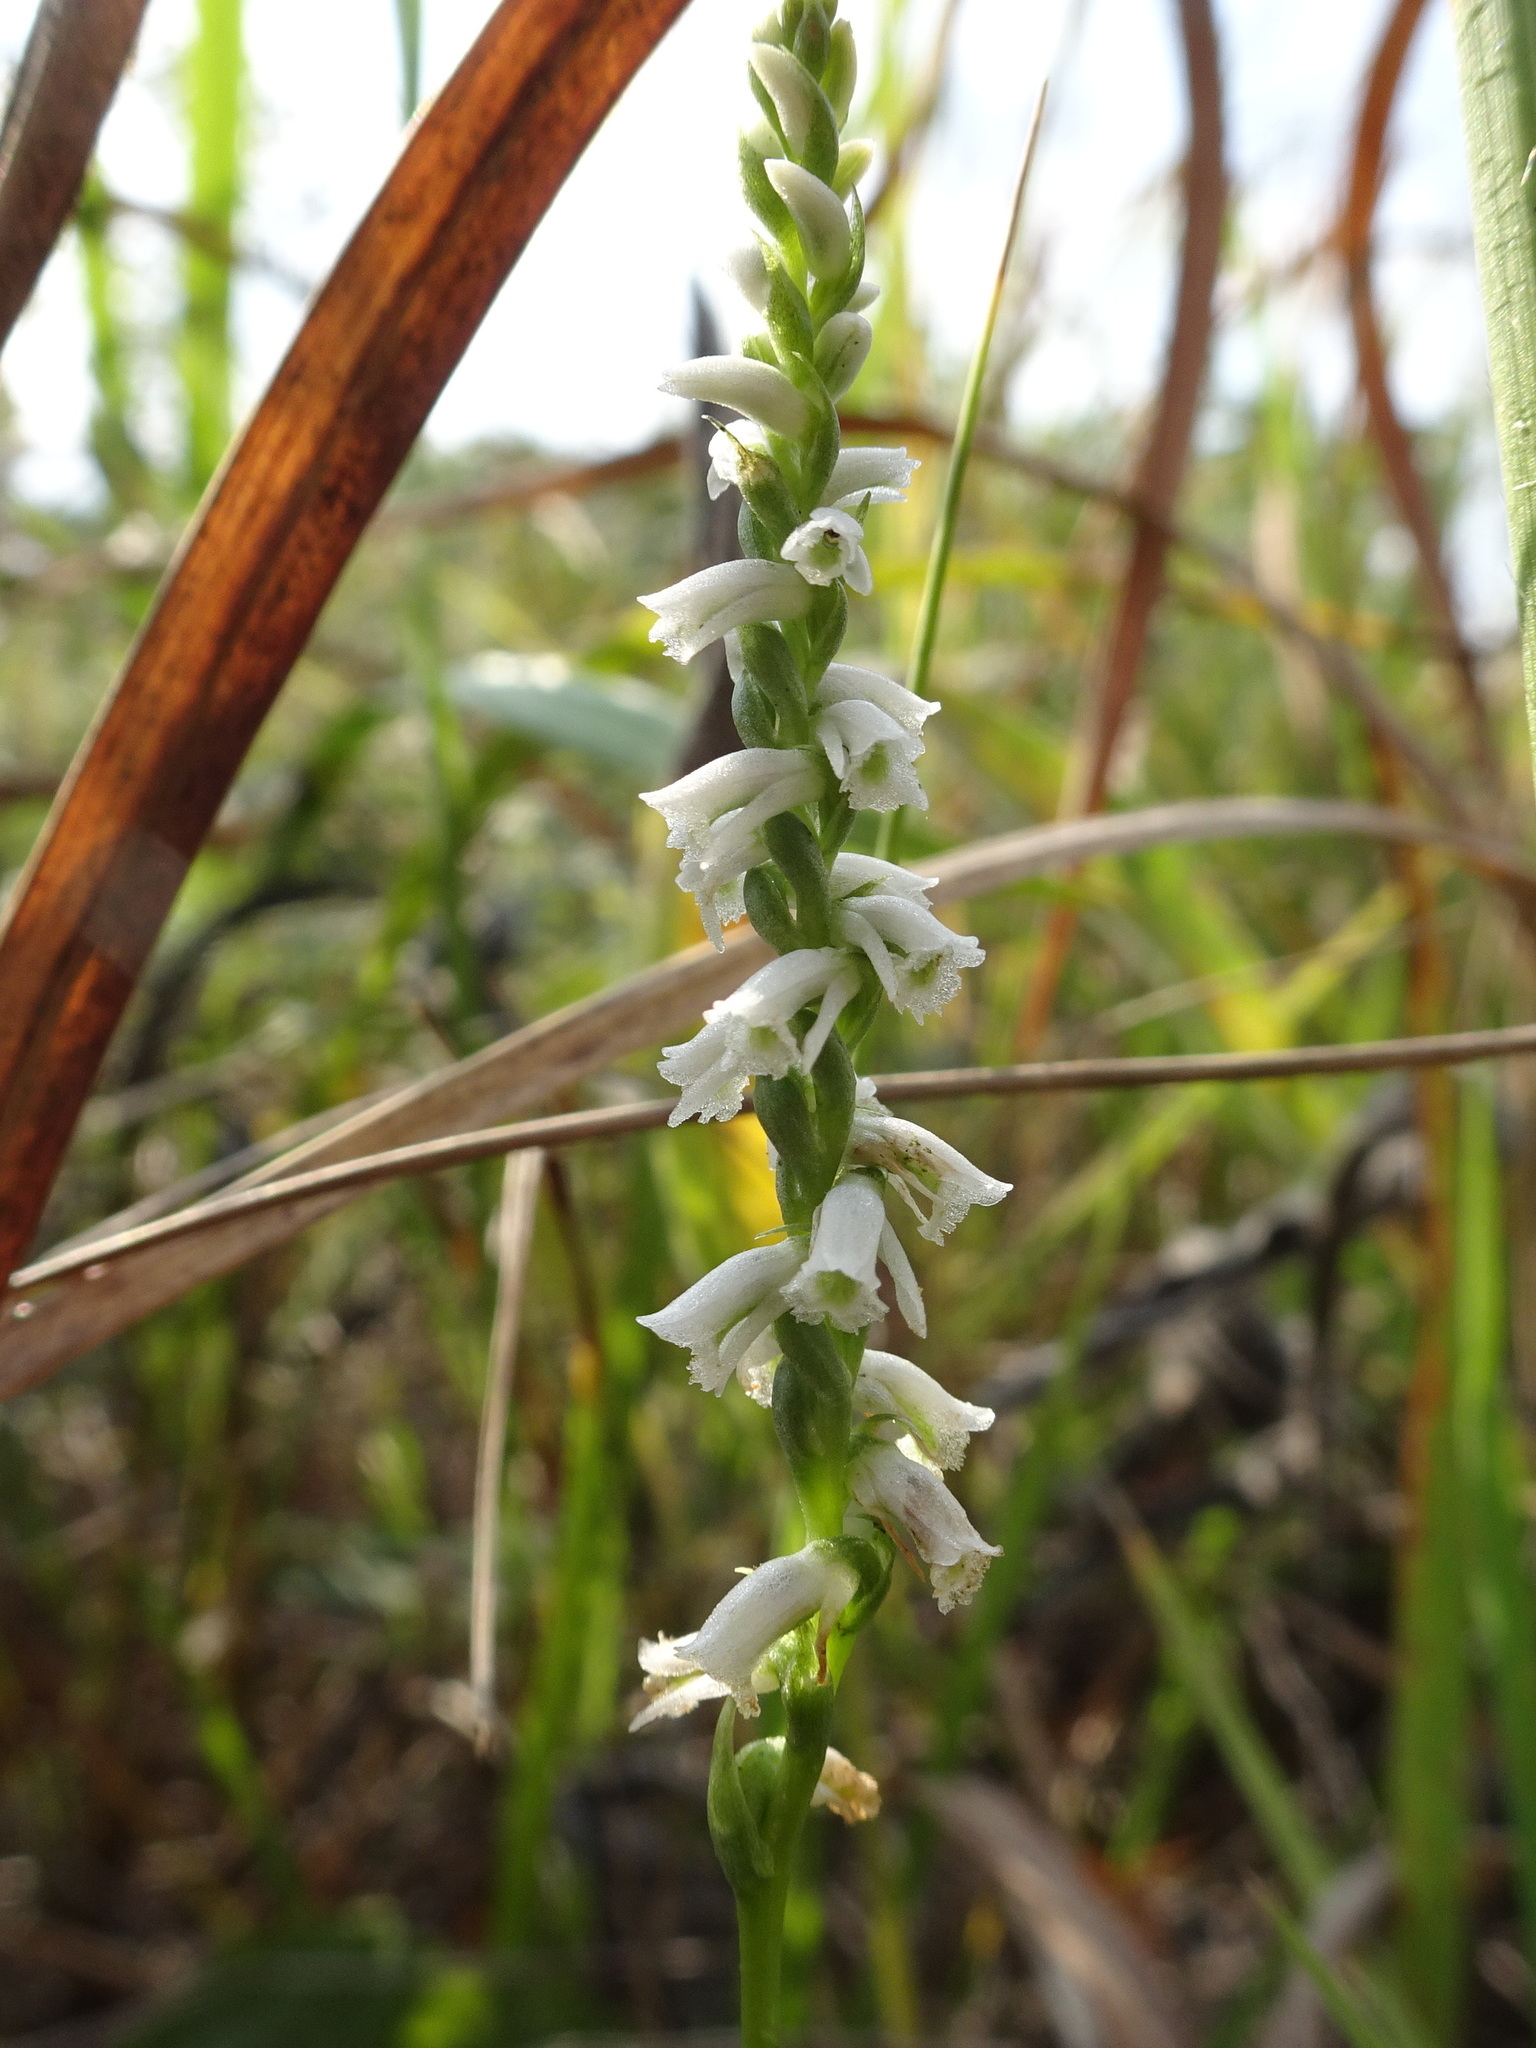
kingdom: Plantae
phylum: Tracheophyta
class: Liliopsida
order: Asparagales
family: Orchidaceae
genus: Spiranthes
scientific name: Spiranthes lacera
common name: Northern slender ladies'-tresses
